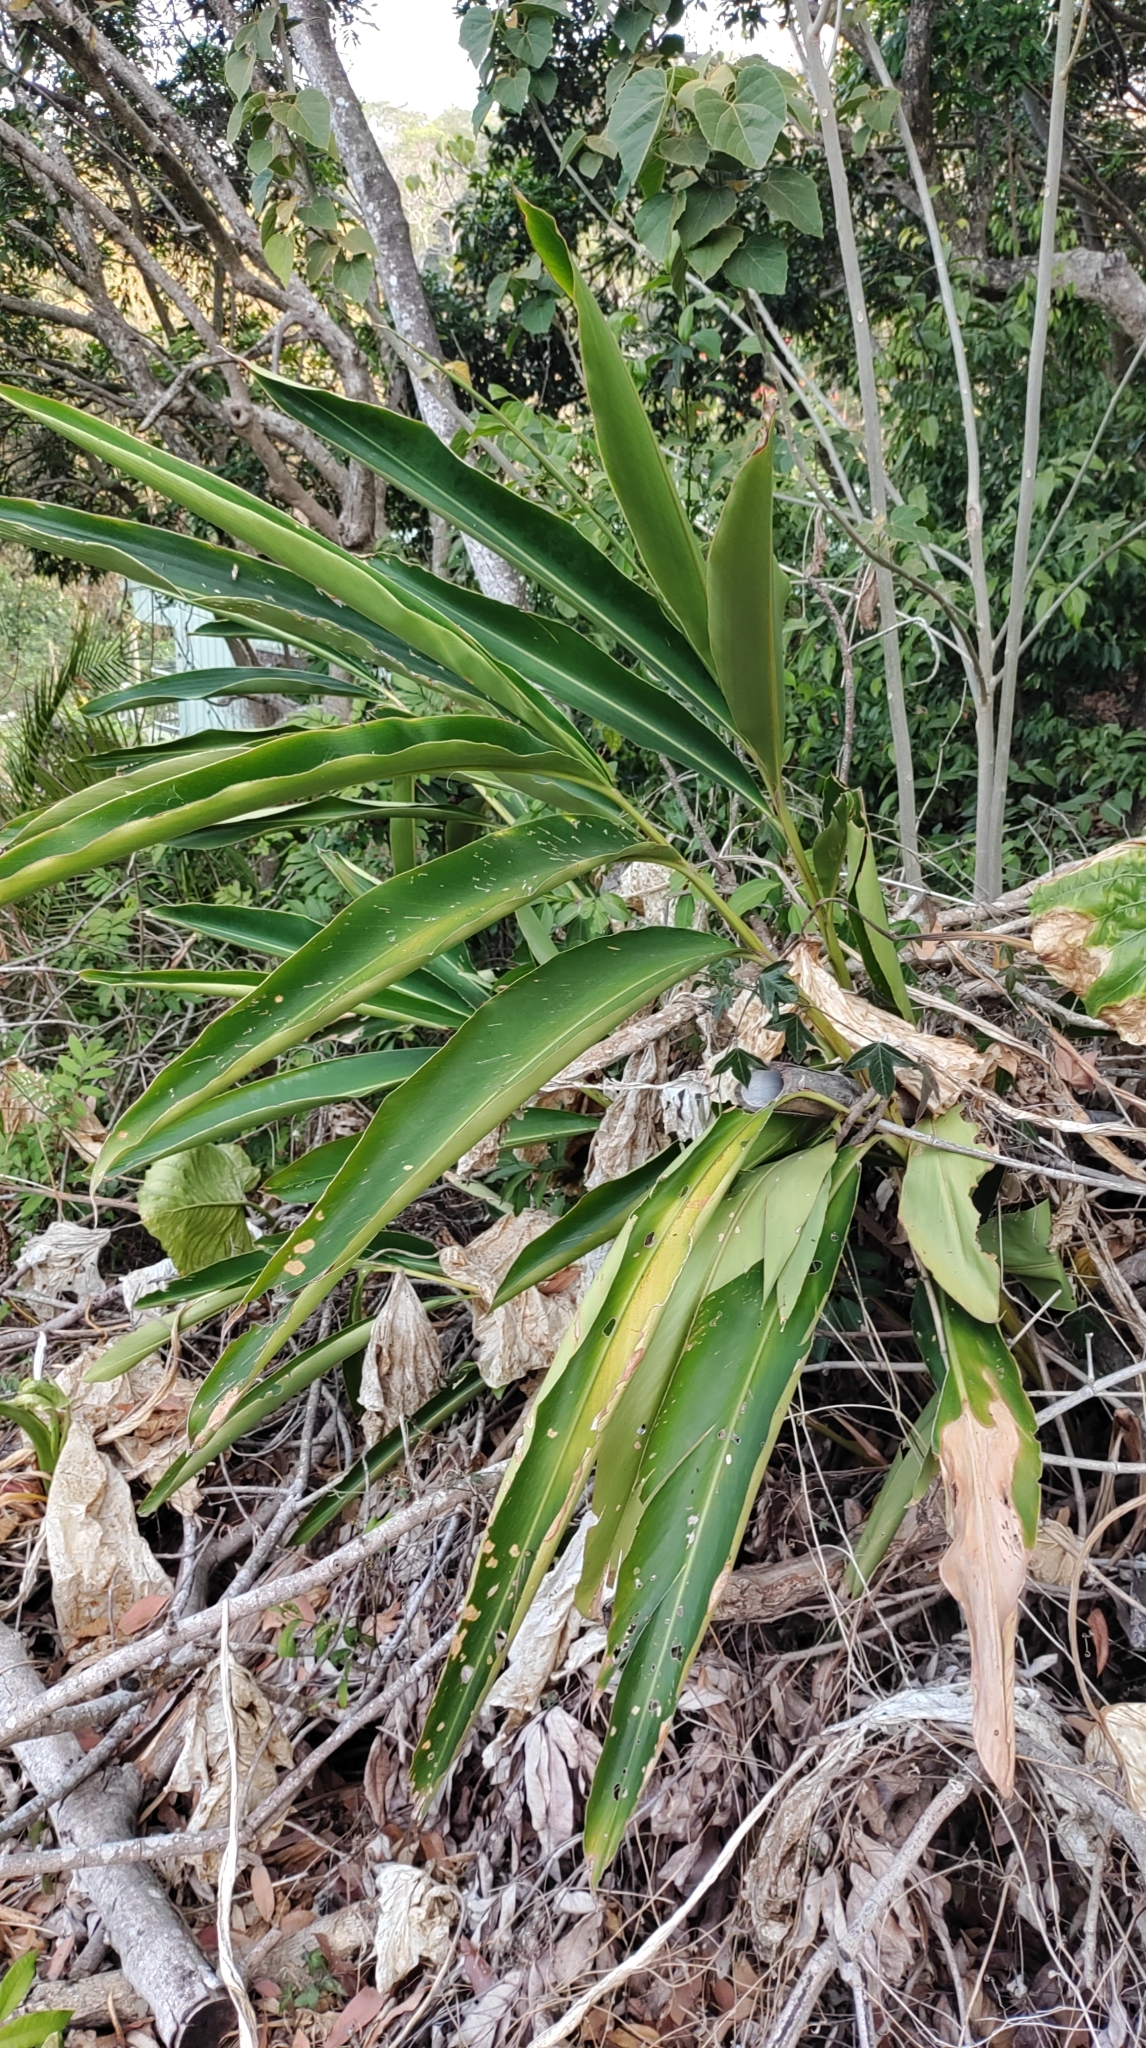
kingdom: Plantae
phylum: Tracheophyta
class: Liliopsida
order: Zingiberales
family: Zingiberaceae
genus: Alpinia
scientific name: Alpinia zerumbet
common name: Shellplant
